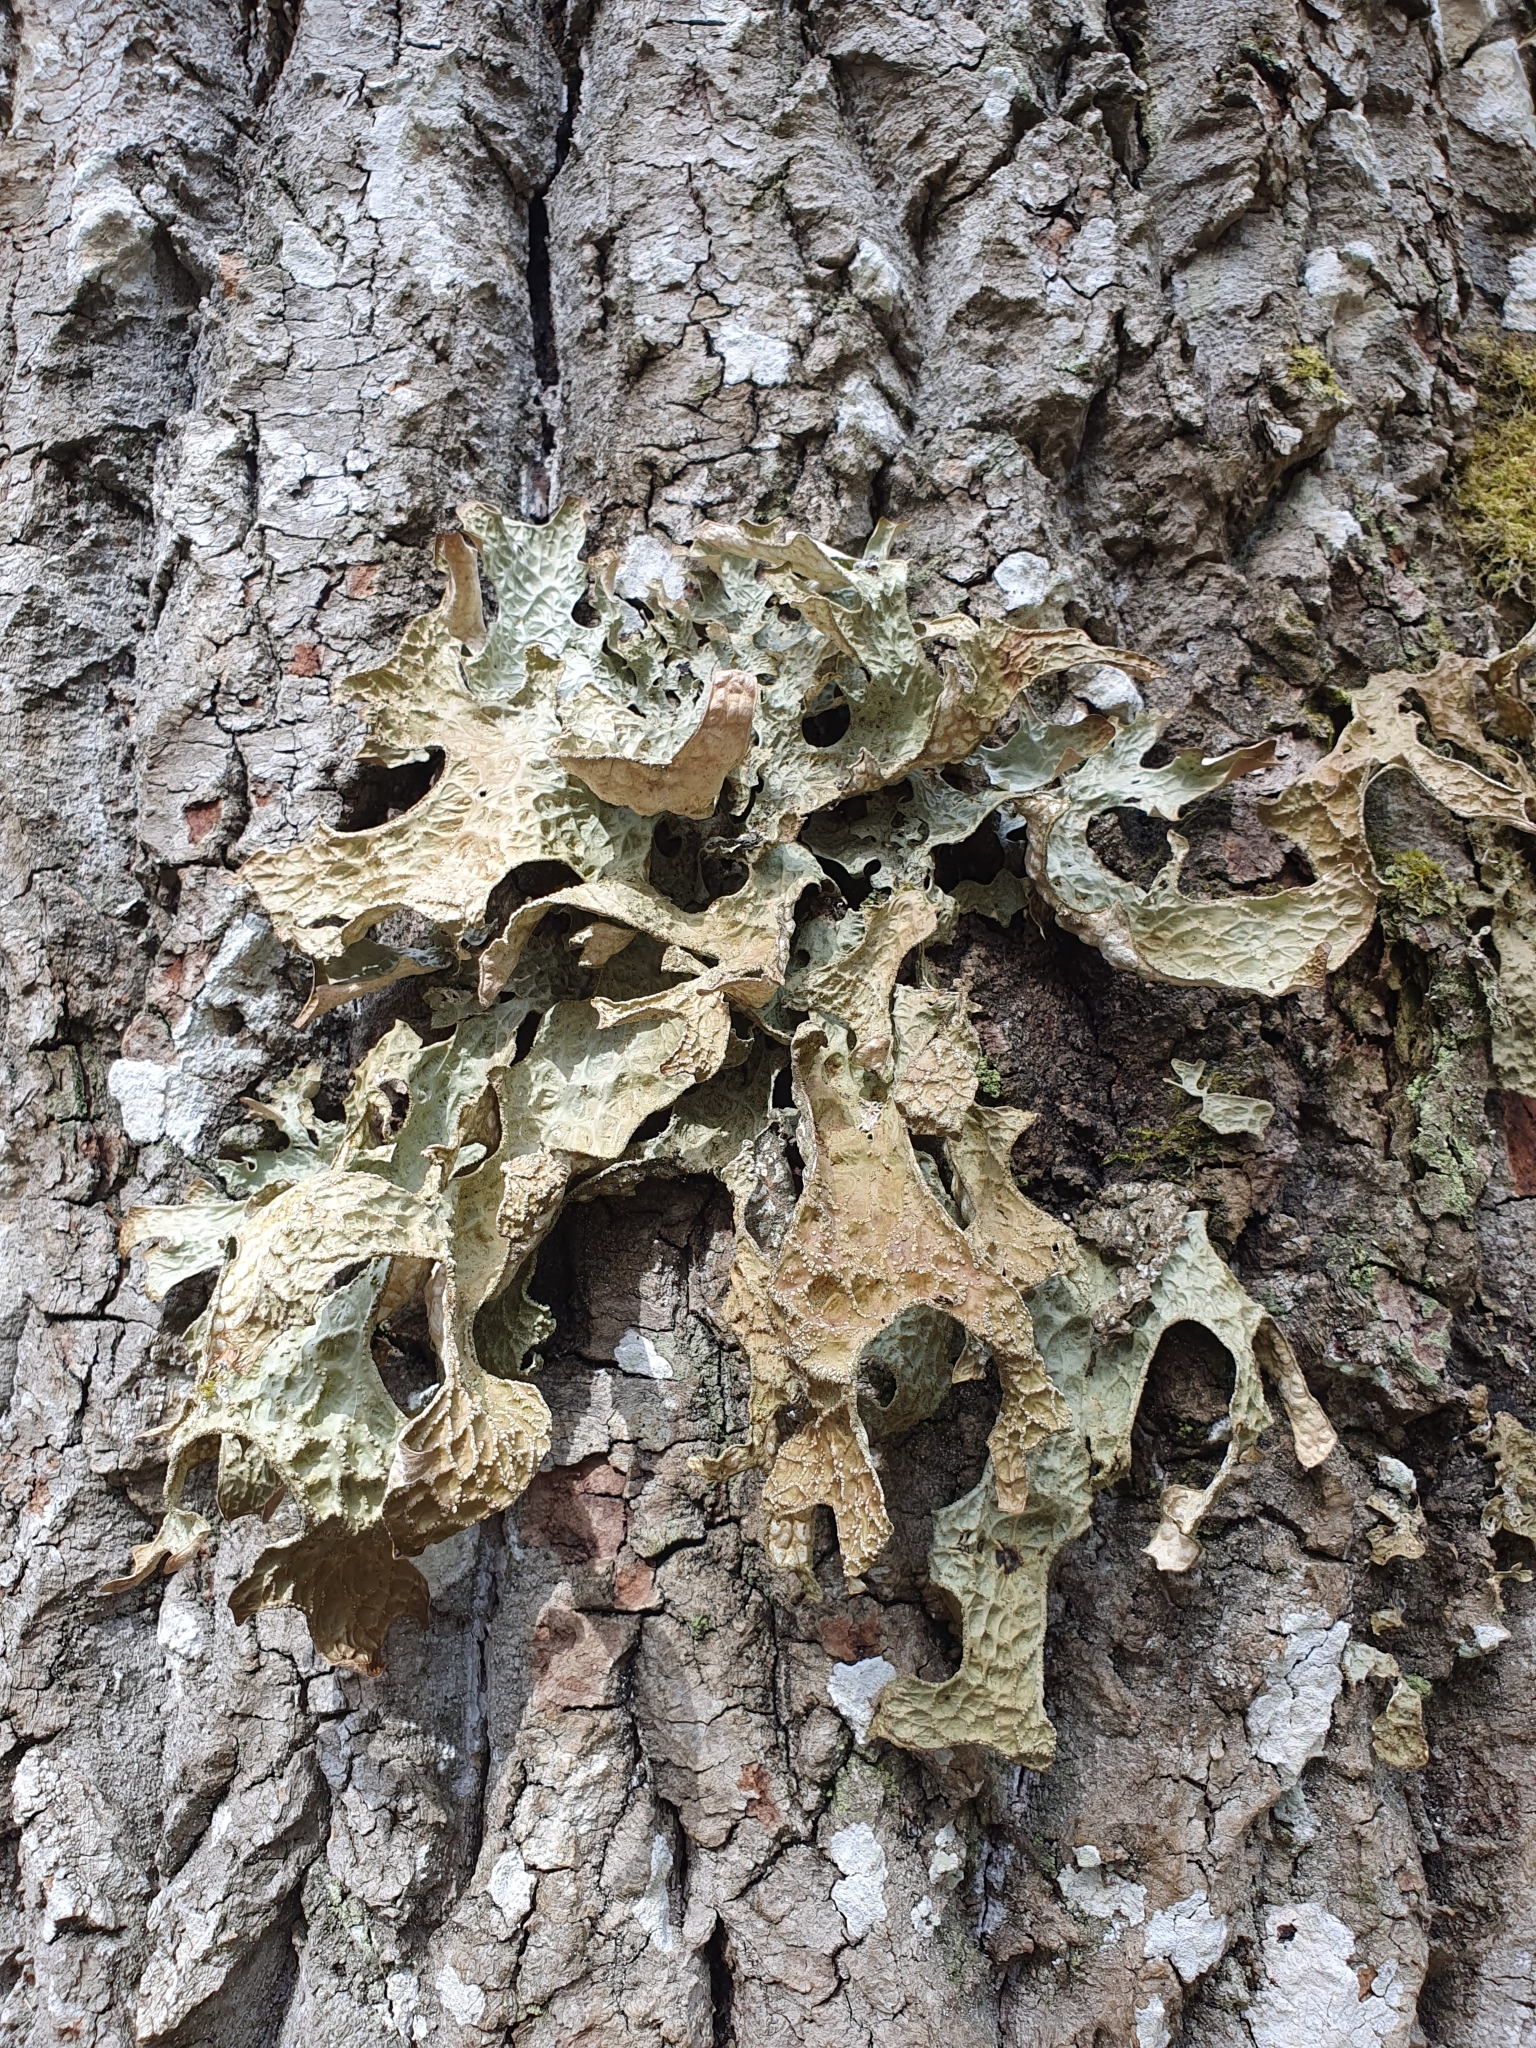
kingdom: Fungi
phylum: Ascomycota
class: Lecanoromycetes
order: Peltigerales
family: Lobariaceae
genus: Lobaria
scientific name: Lobaria pulmonaria
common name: Lungwort
